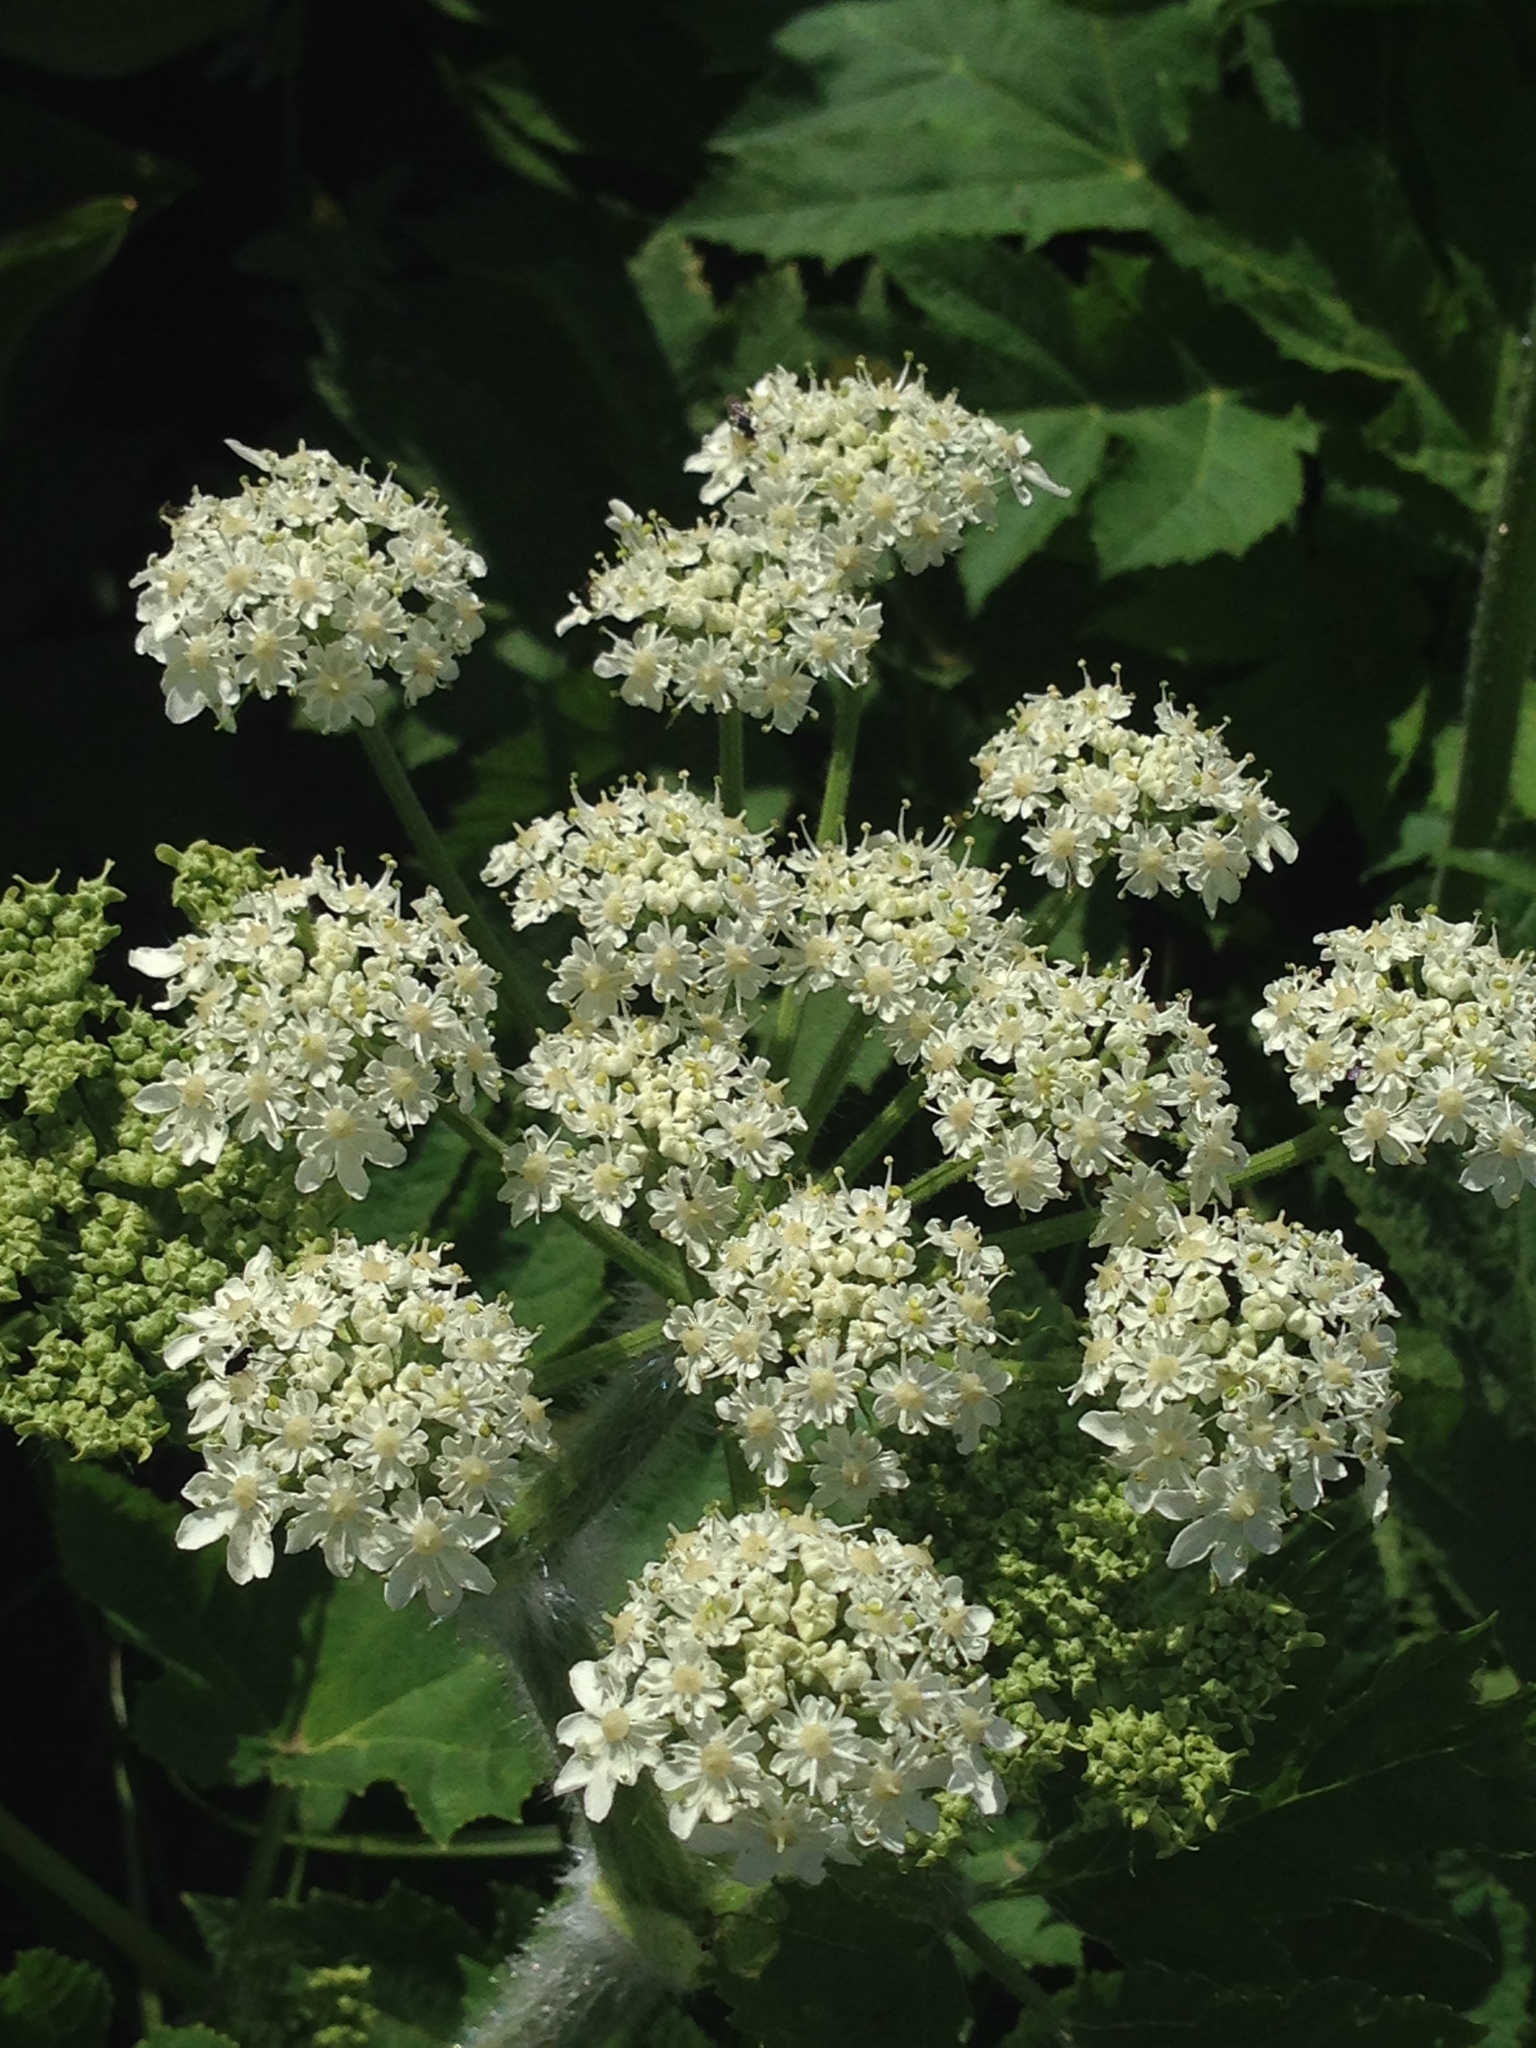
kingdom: Plantae
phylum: Tracheophyta
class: Magnoliopsida
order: Apiales
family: Apiaceae
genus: Heracleum
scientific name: Heracleum maximum
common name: American cow parsnip
